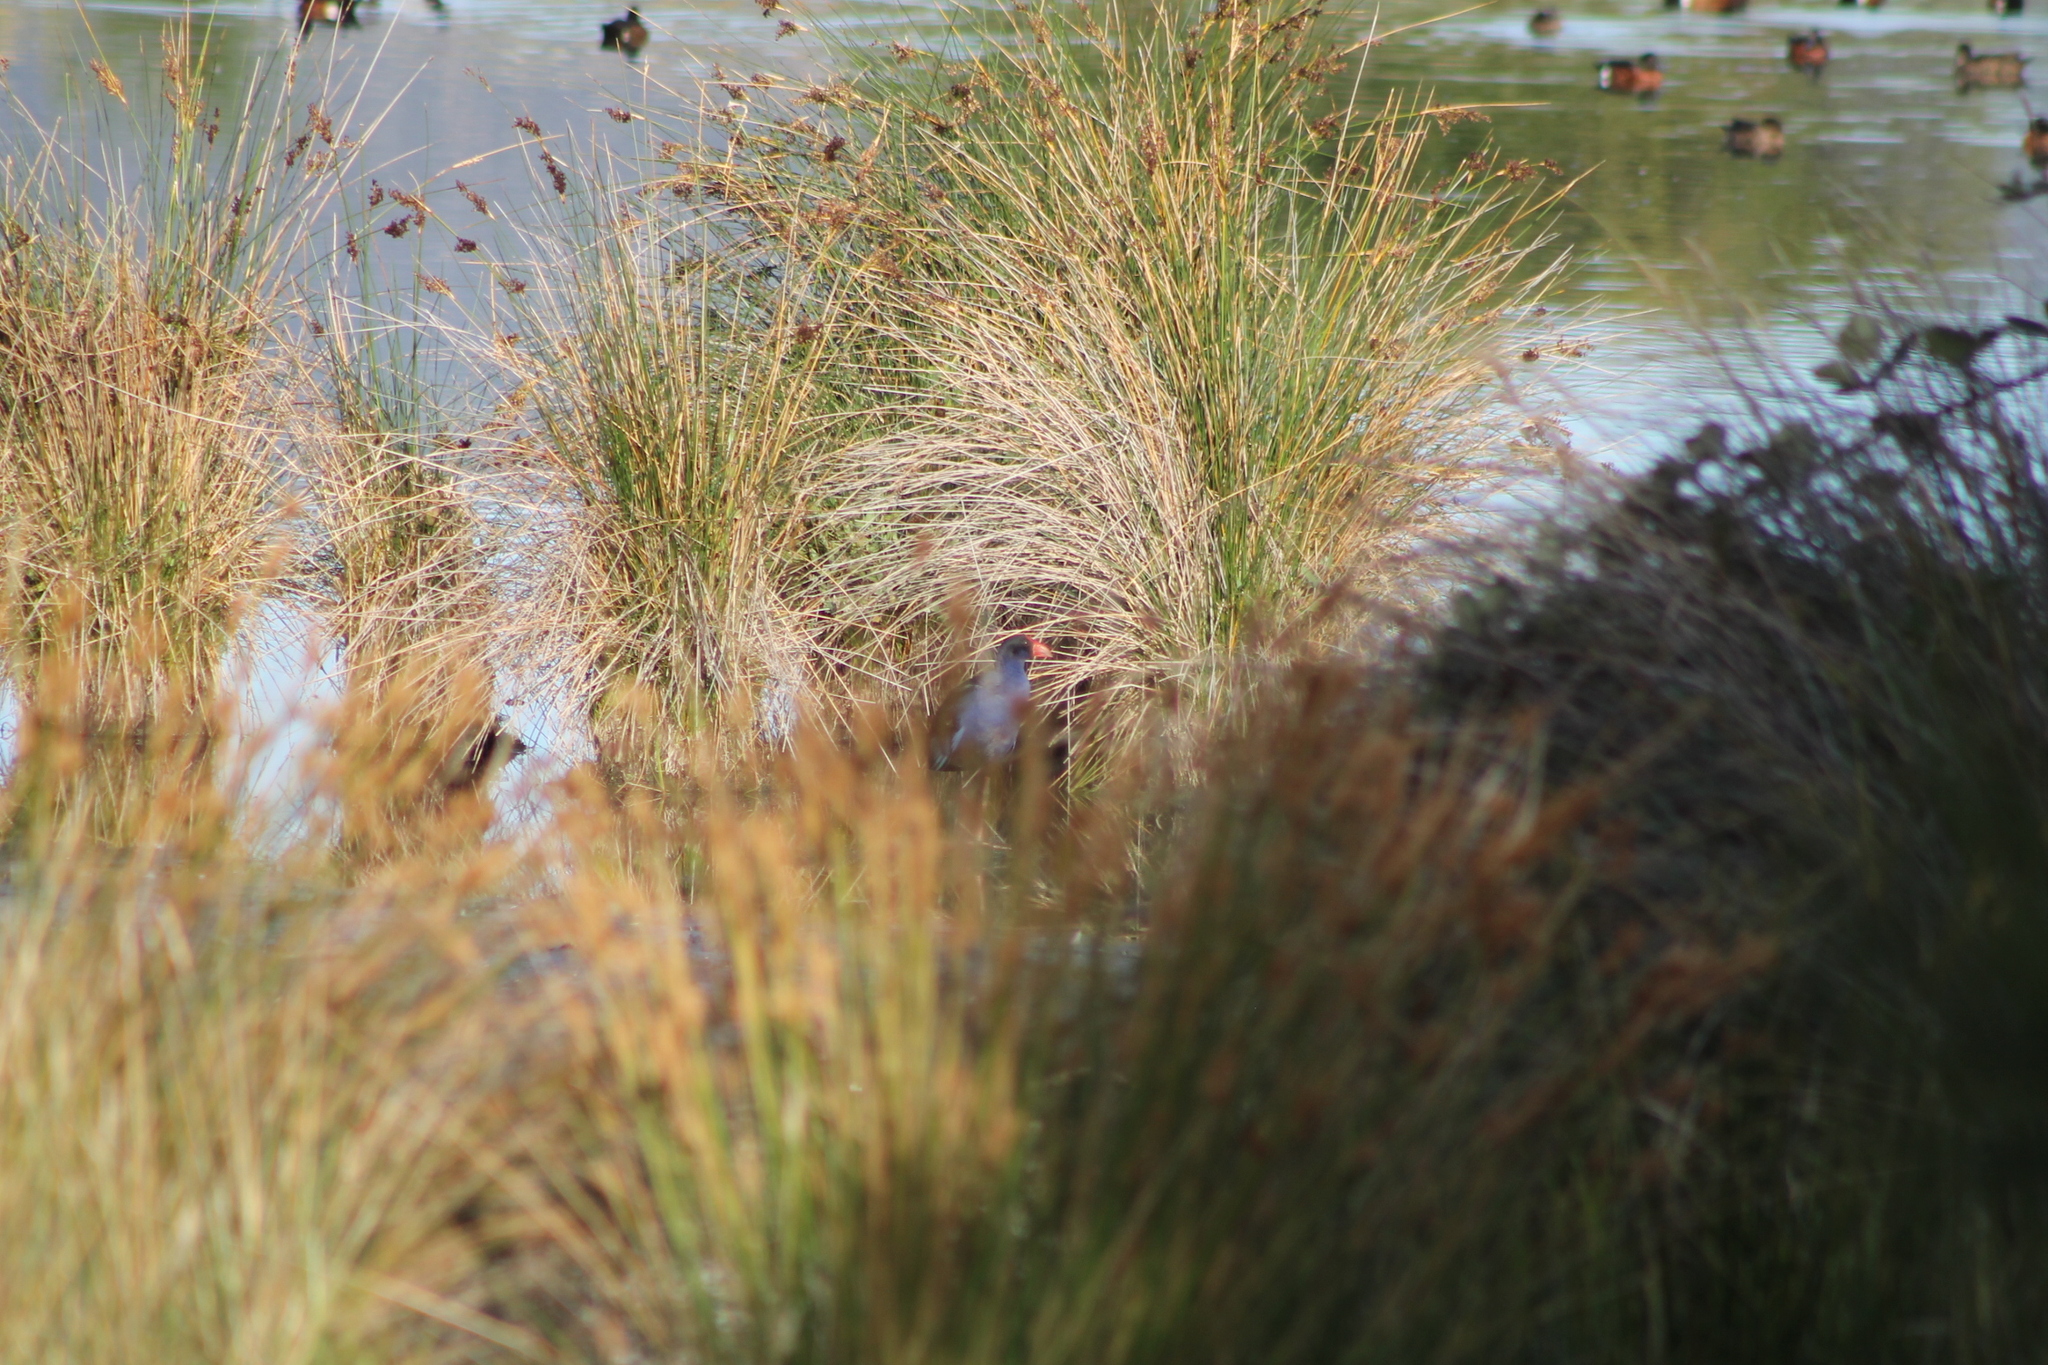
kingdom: Animalia
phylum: Chordata
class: Aves
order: Gruiformes
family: Rallidae
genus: Porphyrio
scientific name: Porphyrio melanotus
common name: Australasian swamphen
